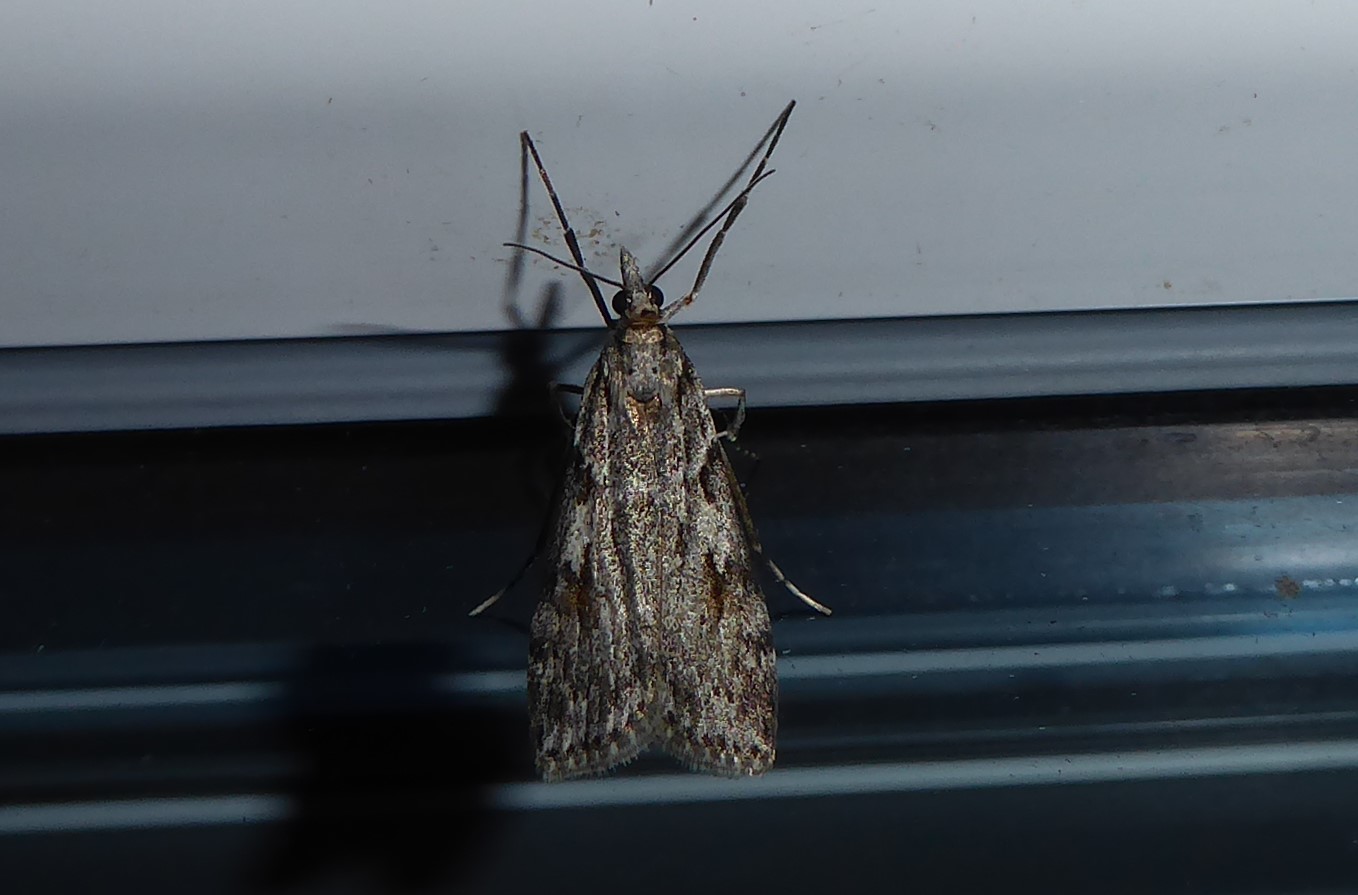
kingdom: Animalia
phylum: Arthropoda
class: Insecta
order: Lepidoptera
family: Crambidae
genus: Scoparia
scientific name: Scoparia halopis
